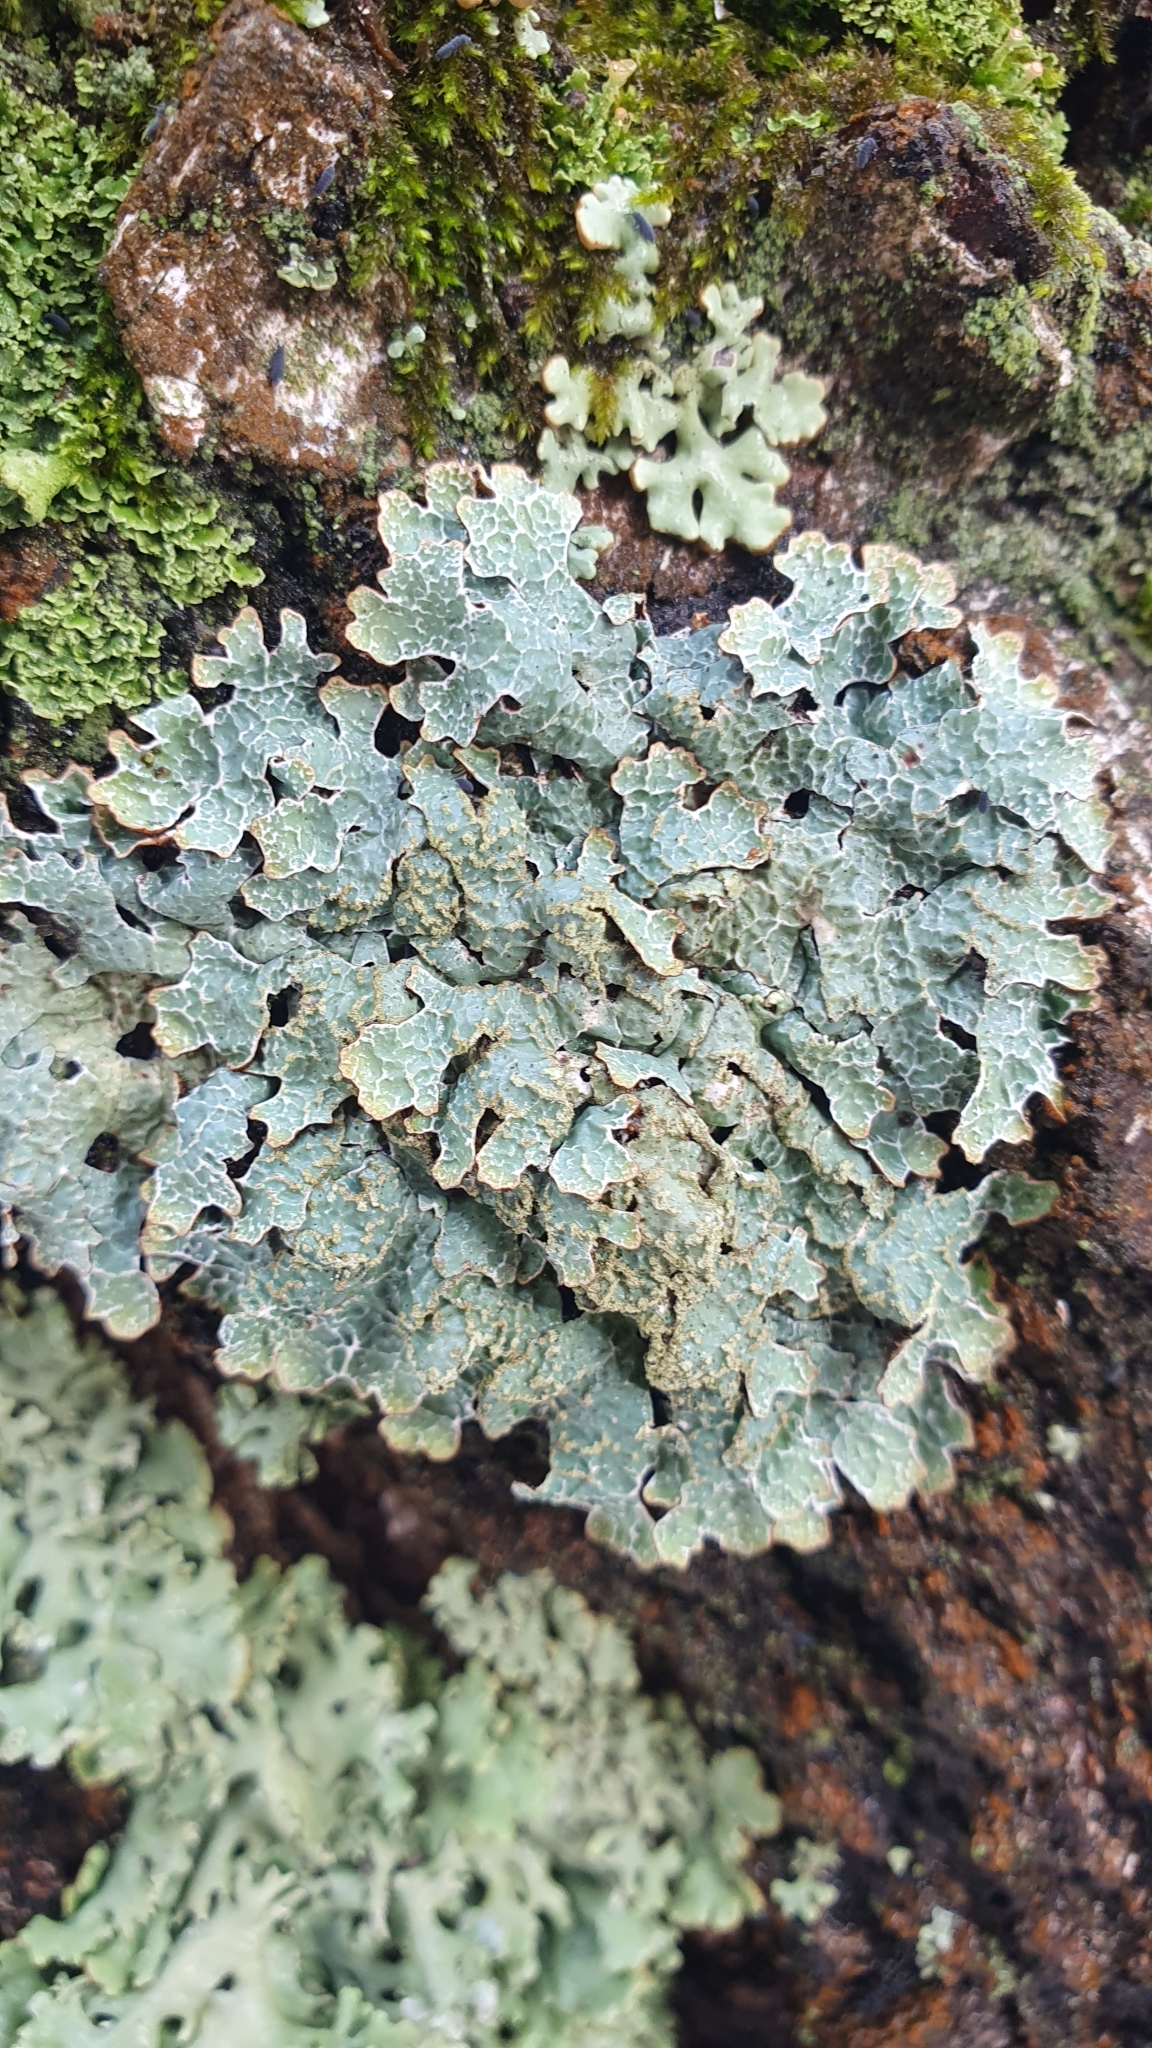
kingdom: Fungi
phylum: Ascomycota
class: Lecanoromycetes
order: Lecanorales
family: Parmeliaceae
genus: Parmelia
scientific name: Parmelia sulcata
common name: Netted shield lichen
